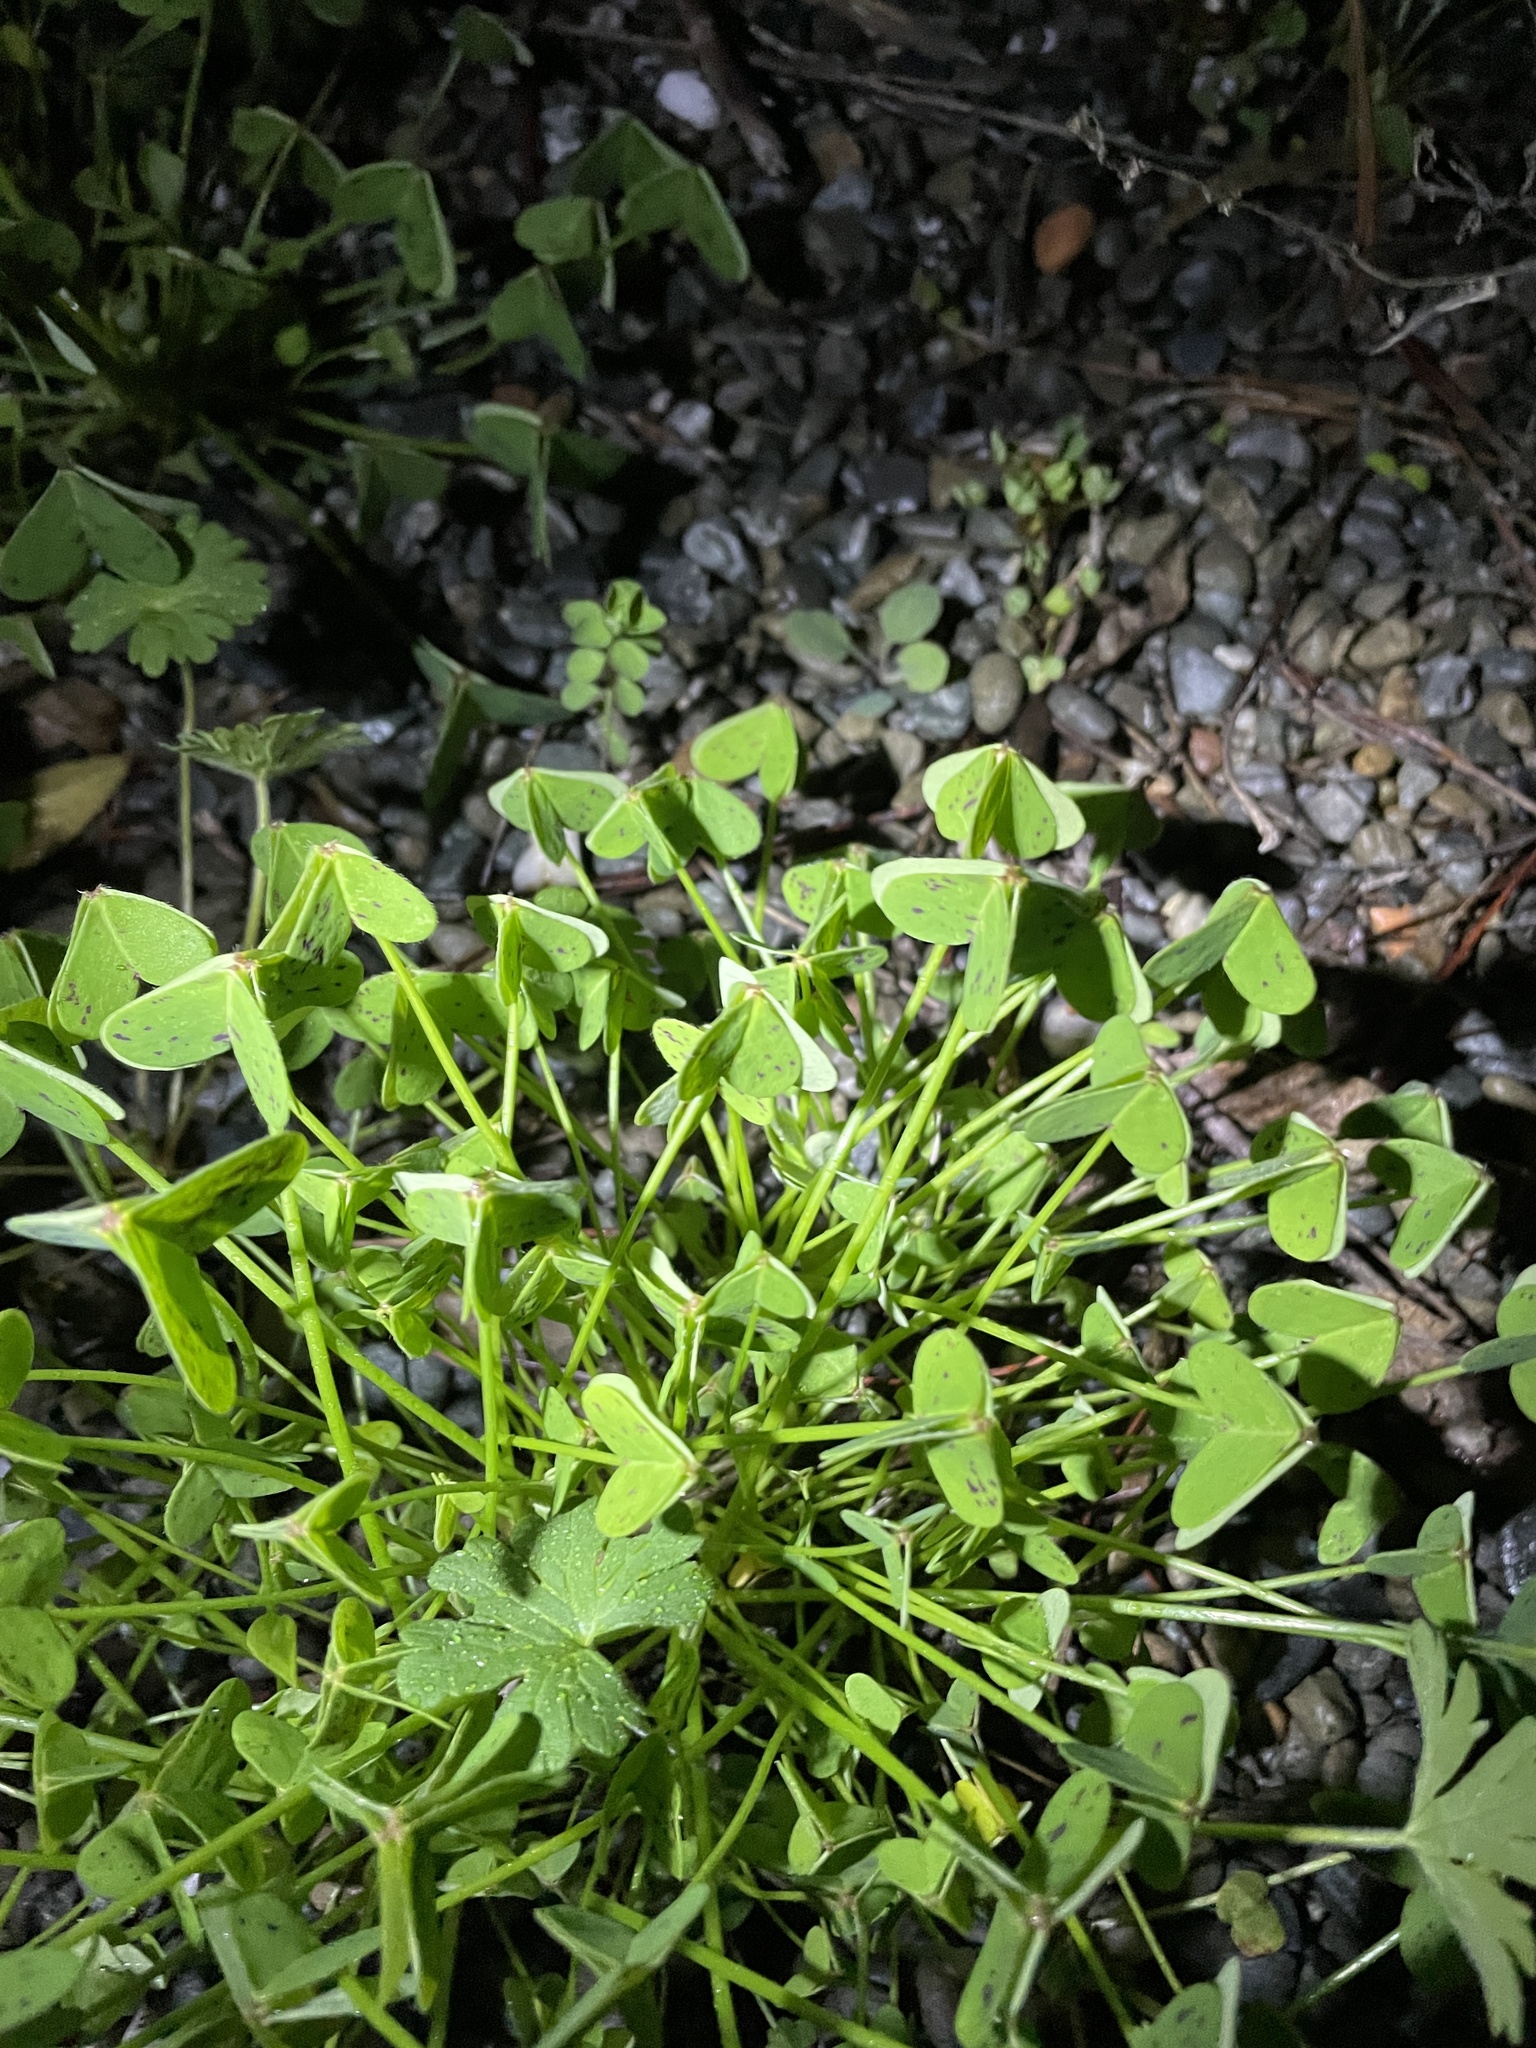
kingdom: Plantae
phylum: Tracheophyta
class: Magnoliopsida
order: Oxalidales
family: Oxalidaceae
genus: Oxalis
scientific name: Oxalis pes-caprae
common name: Bermuda-buttercup
